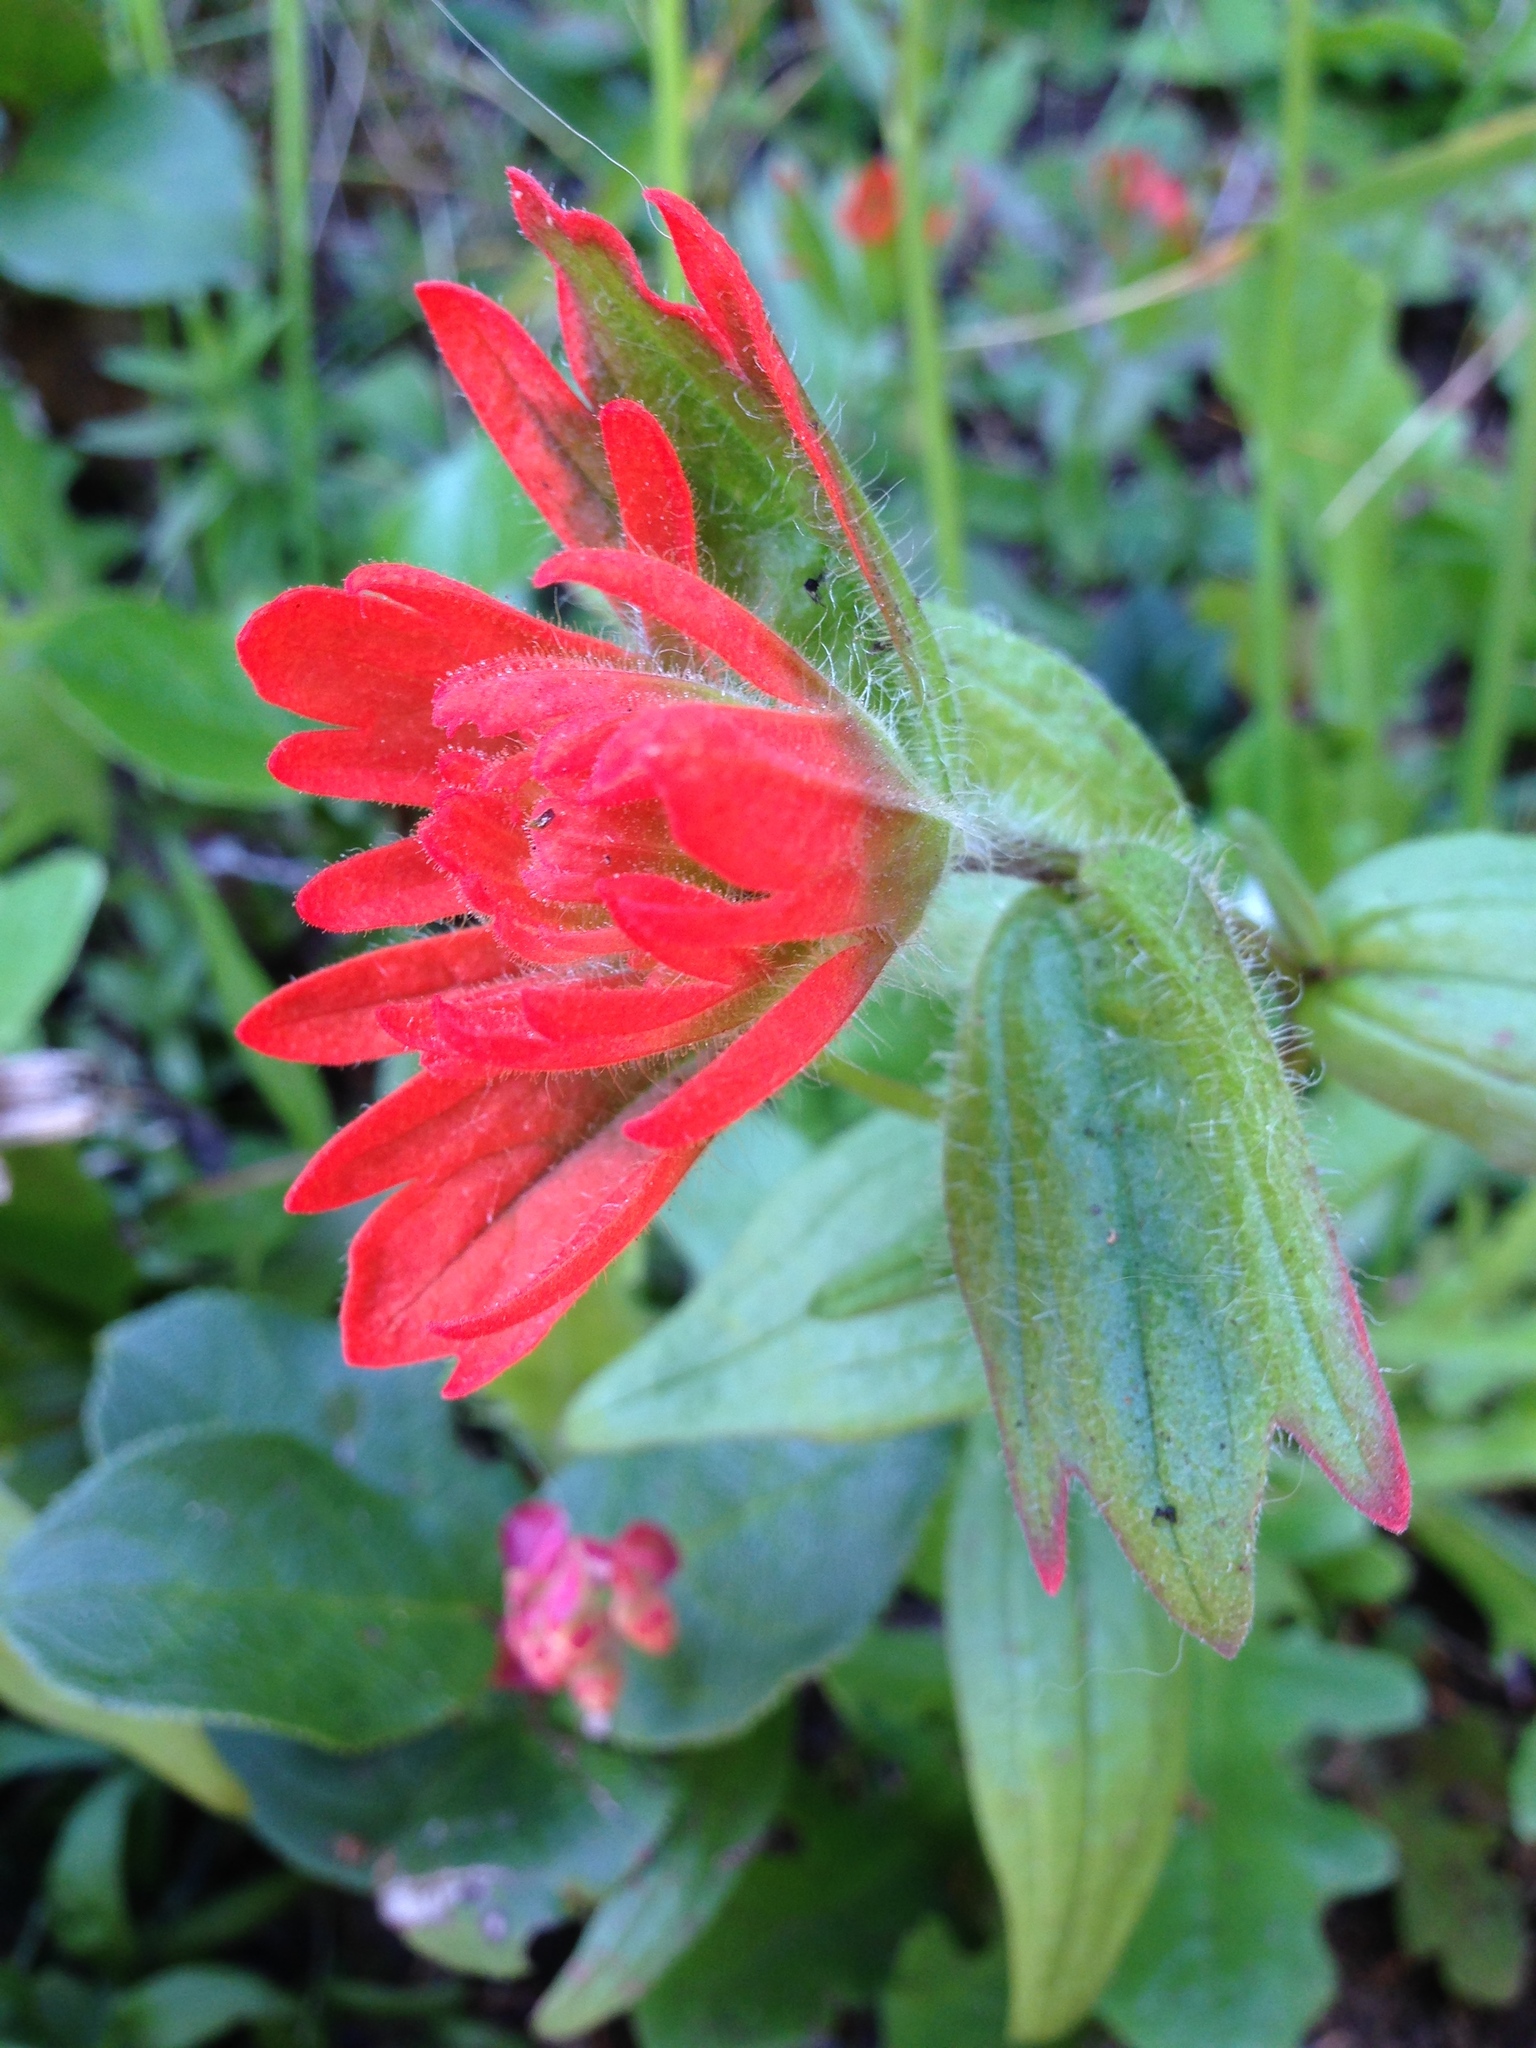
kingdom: Plantae
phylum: Tracheophyta
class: Magnoliopsida
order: Lamiales
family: Orobanchaceae
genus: Castilleja
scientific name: Castilleja litoralis
